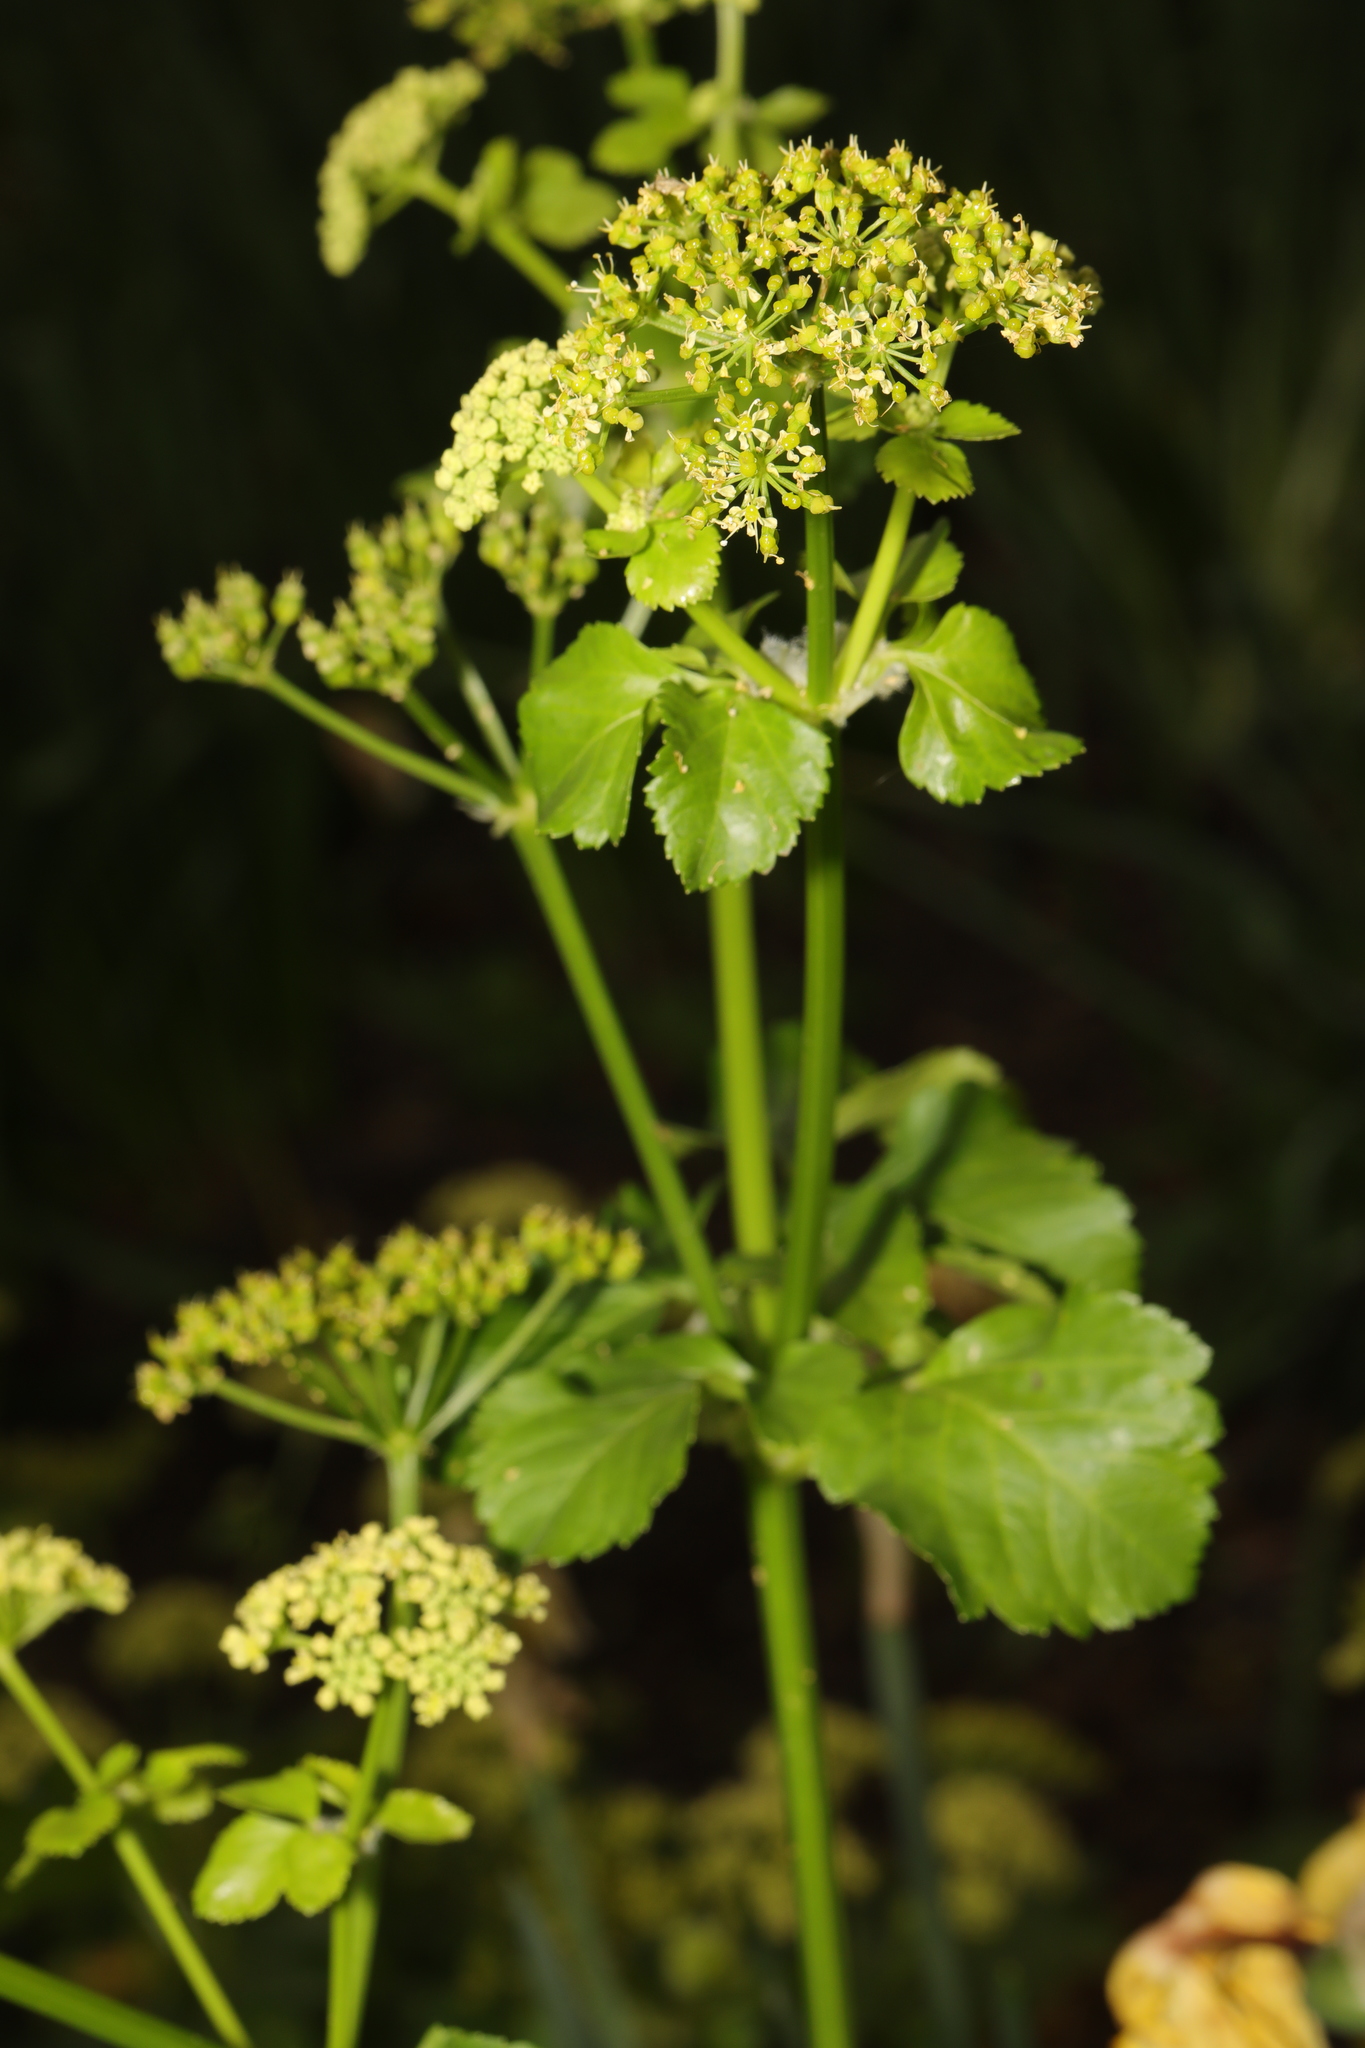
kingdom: Plantae
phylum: Tracheophyta
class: Magnoliopsida
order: Apiales
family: Apiaceae
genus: Smyrnium
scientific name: Smyrnium olusatrum
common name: Alexanders
